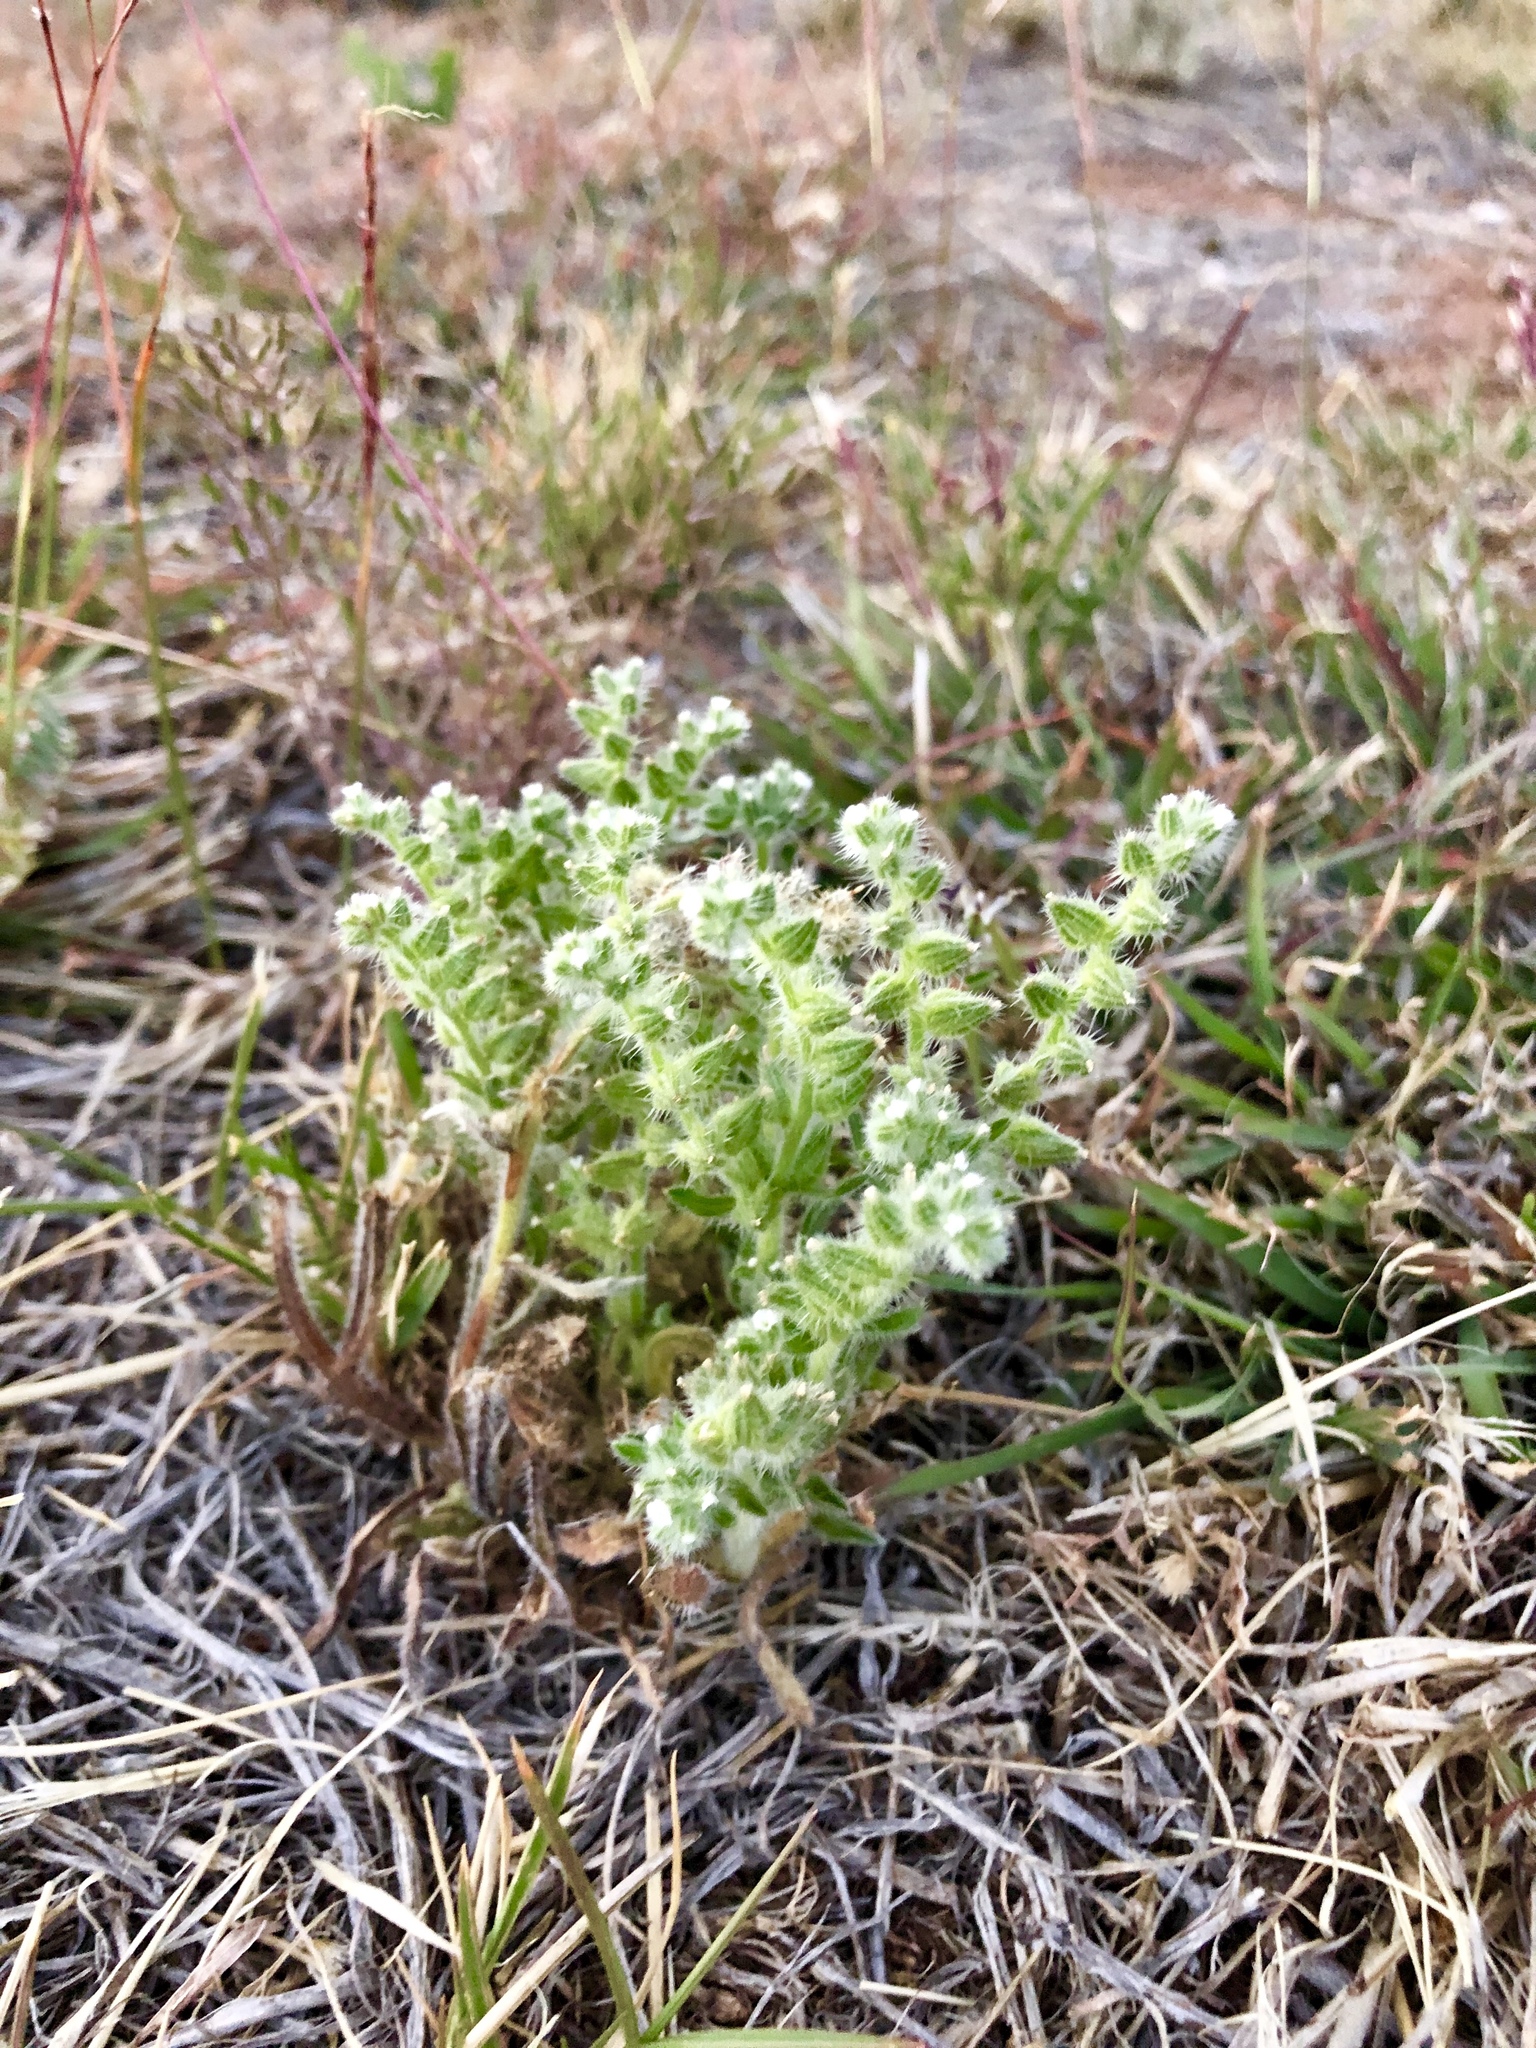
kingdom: Plantae
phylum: Tracheophyta
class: Magnoliopsida
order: Boraginales
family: Boraginaceae
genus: Cryptantha
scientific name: Cryptantha crassisepala
